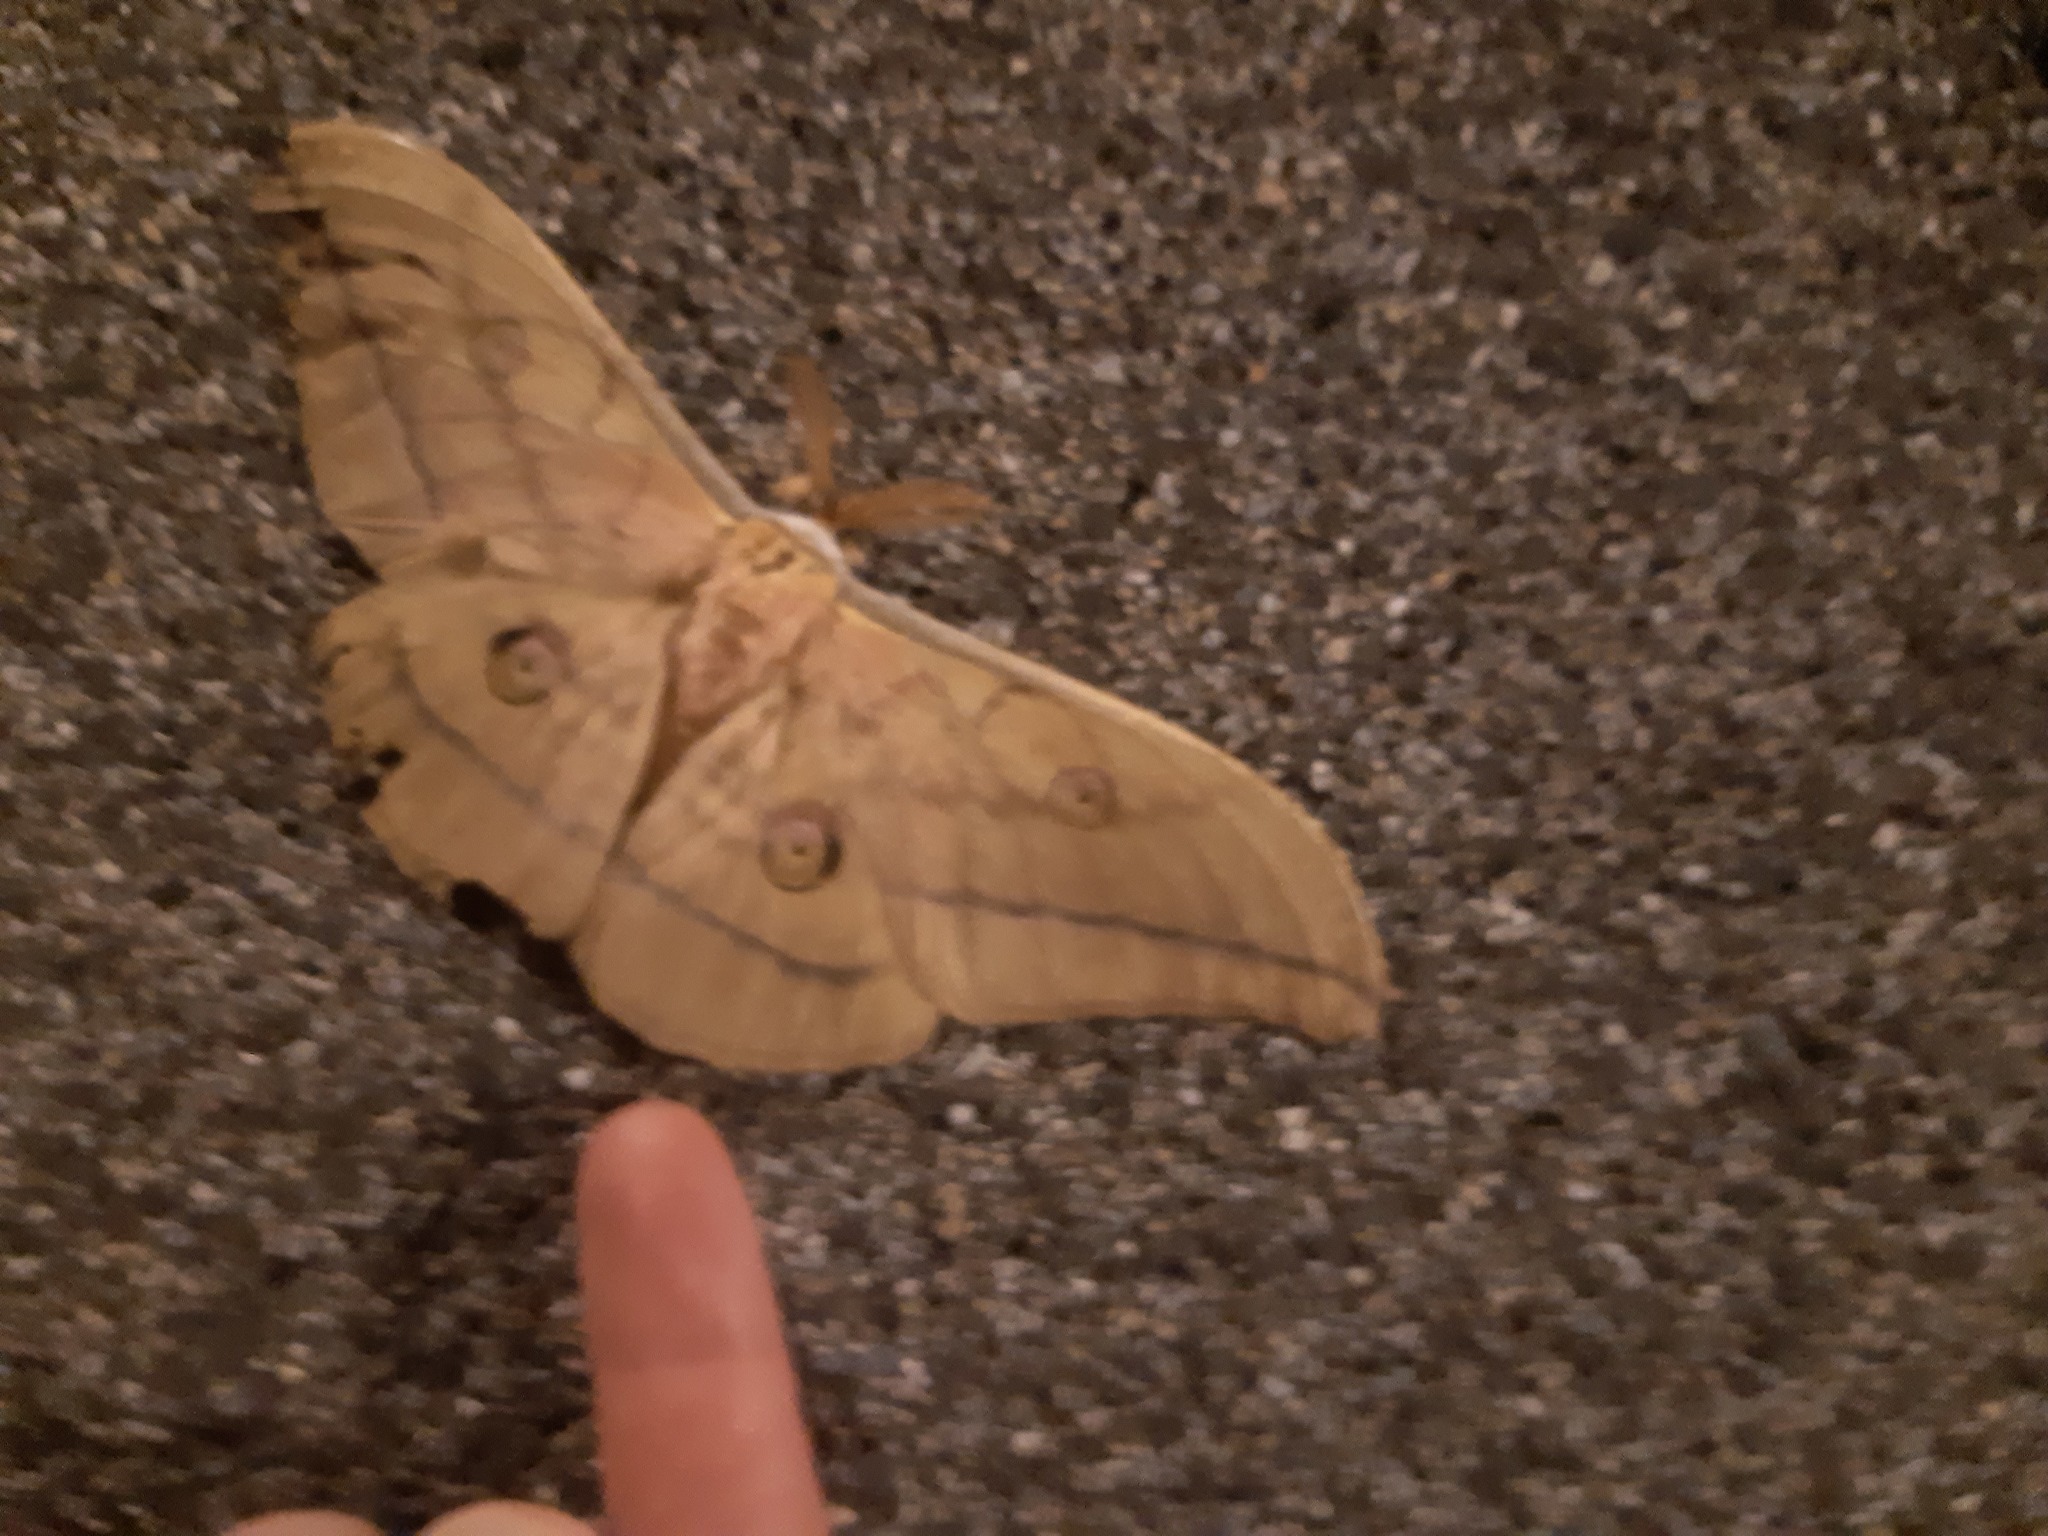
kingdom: Animalia
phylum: Arthropoda
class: Insecta
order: Lepidoptera
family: Saturniidae
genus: Antheraea
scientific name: Antheraea yamamai
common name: Japanese oak silk moth
